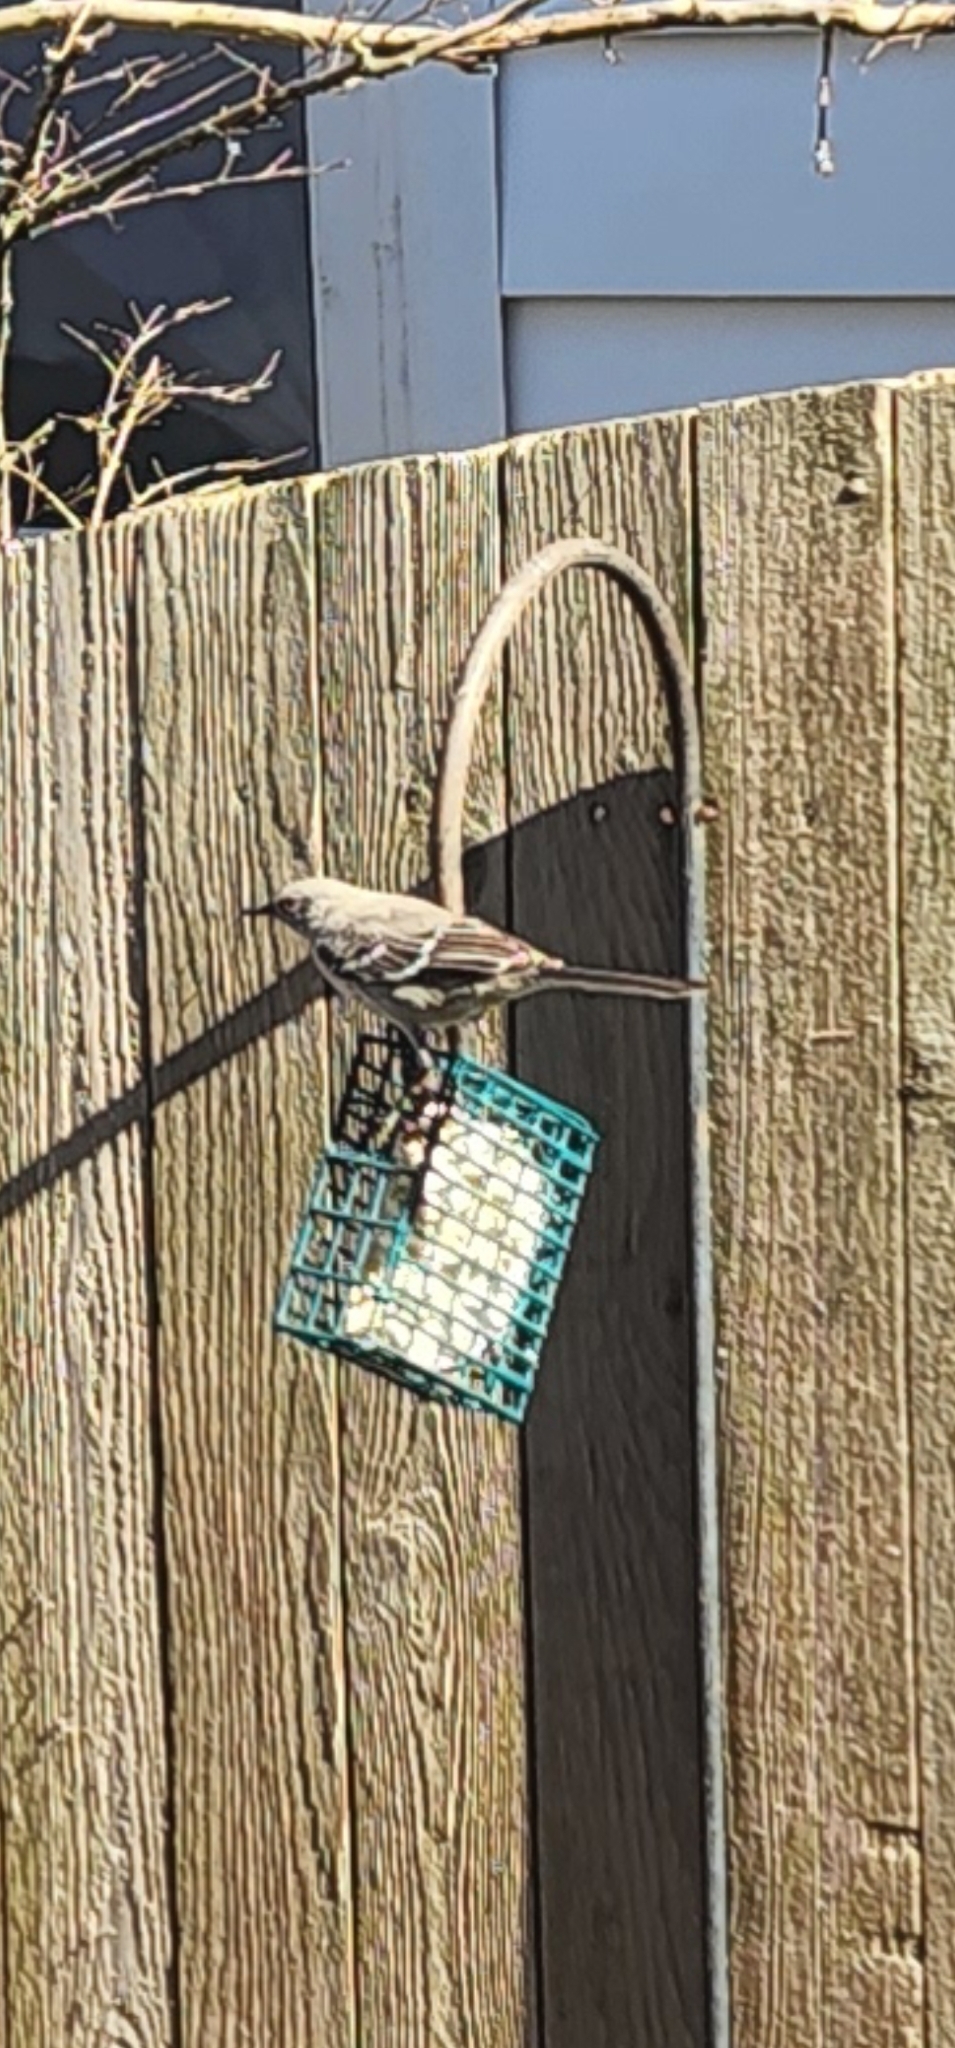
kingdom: Animalia
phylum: Chordata
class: Aves
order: Passeriformes
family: Mimidae
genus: Mimus
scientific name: Mimus polyglottos
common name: Northern mockingbird
